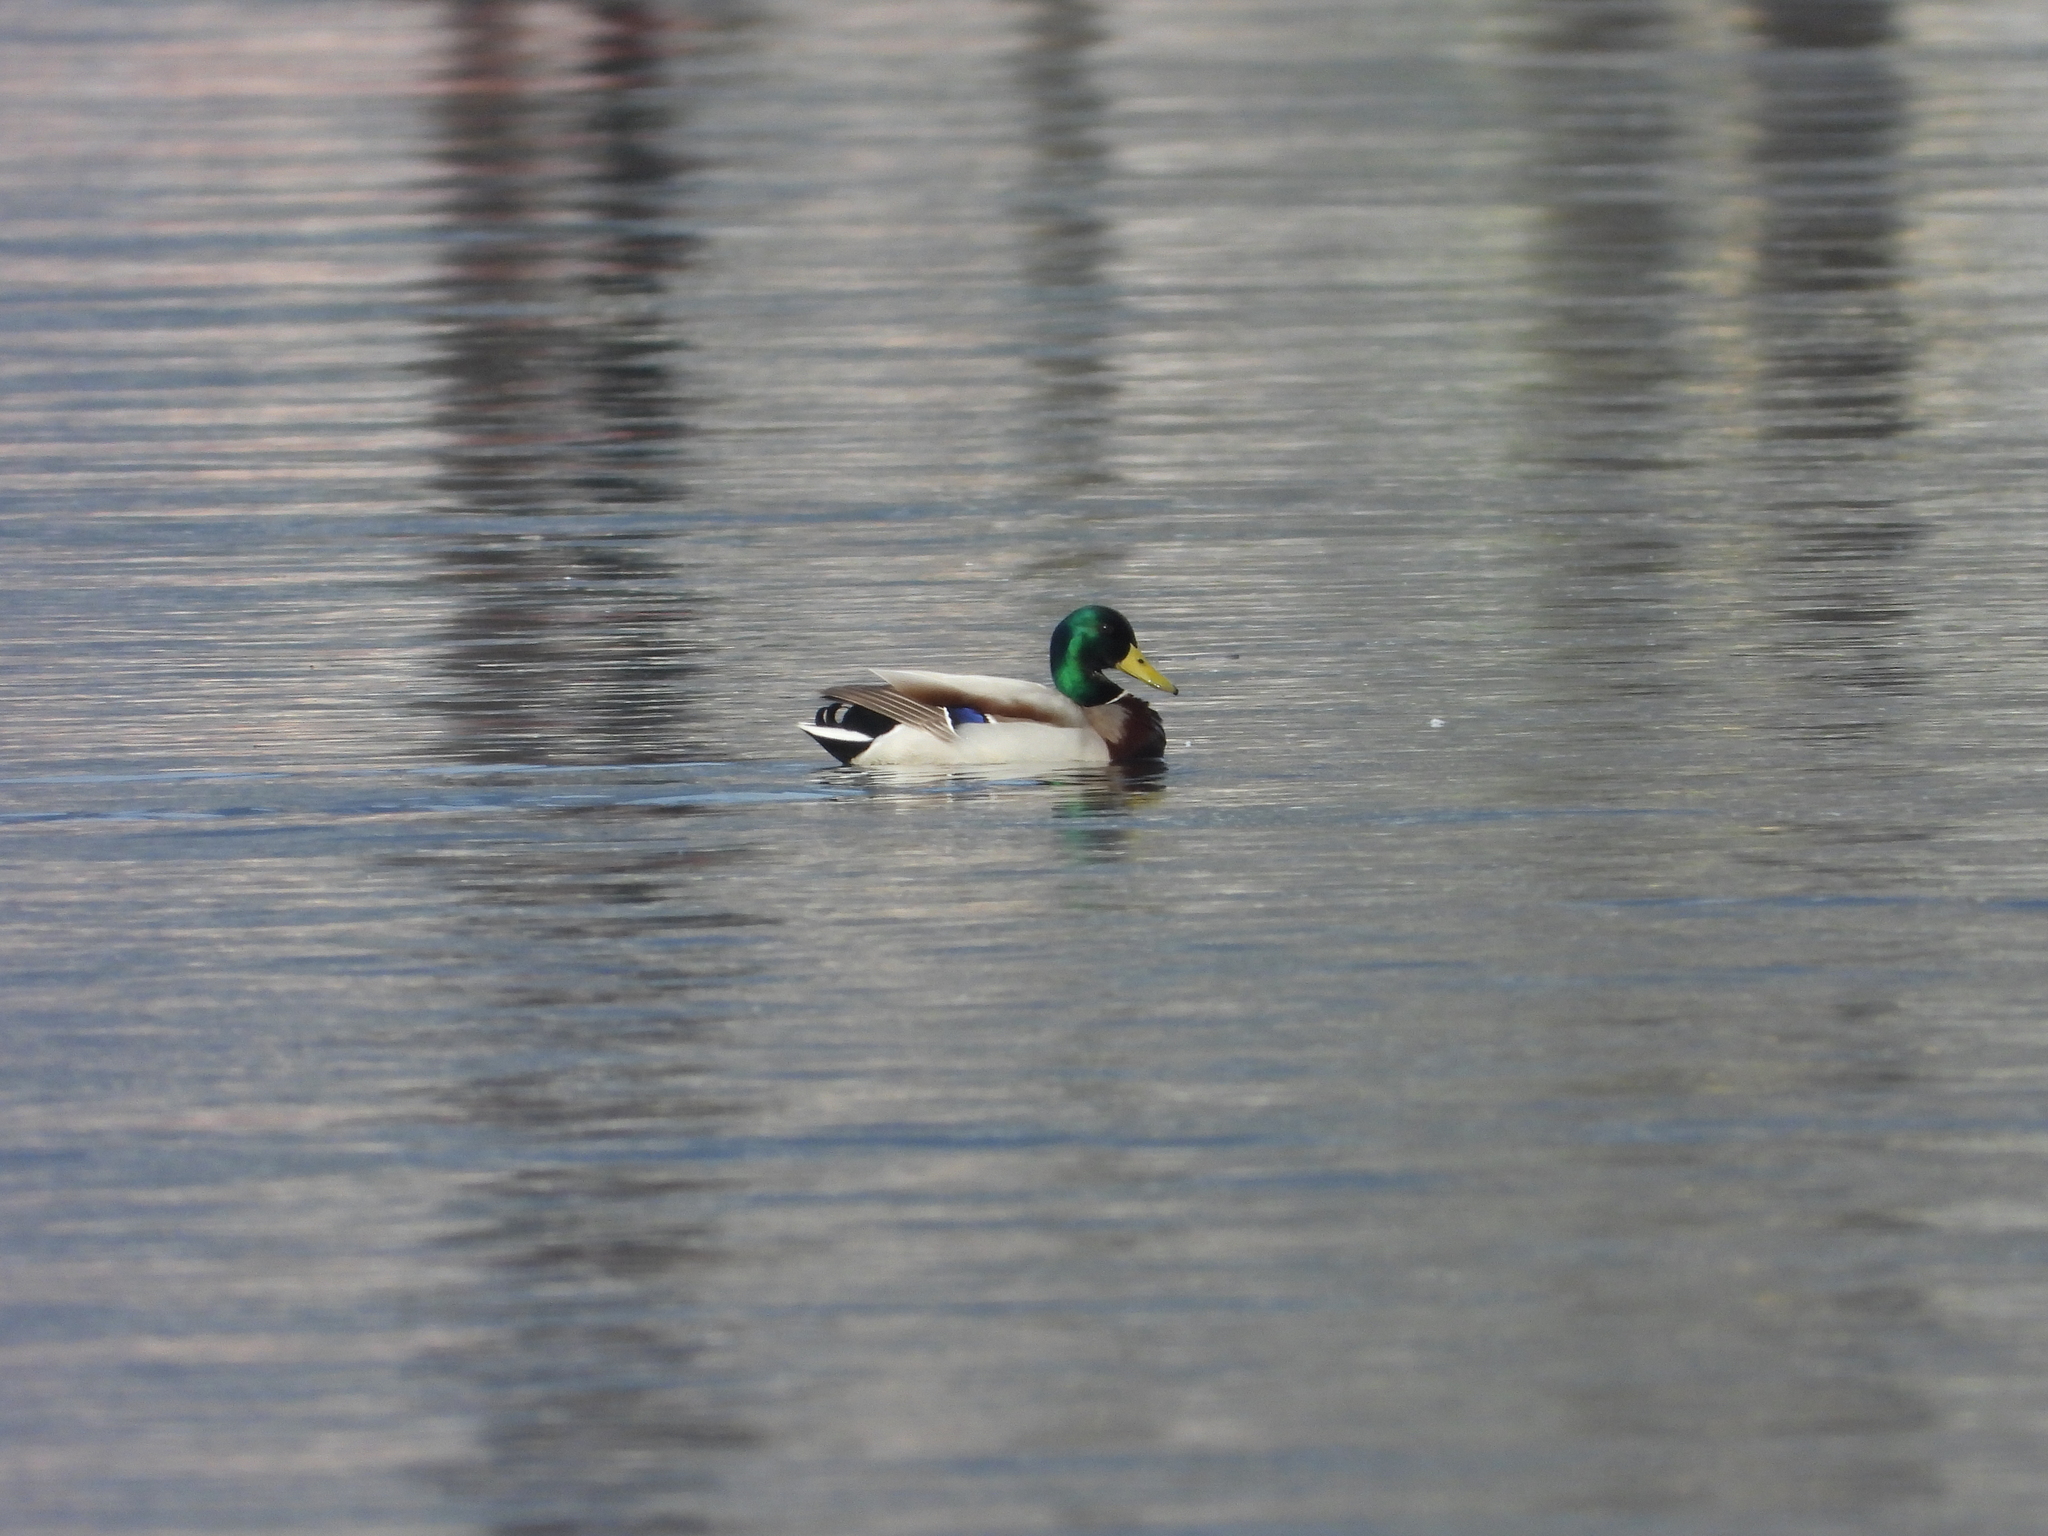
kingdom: Animalia
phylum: Chordata
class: Aves
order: Anseriformes
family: Anatidae
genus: Anas
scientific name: Anas platyrhynchos
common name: Mallard
